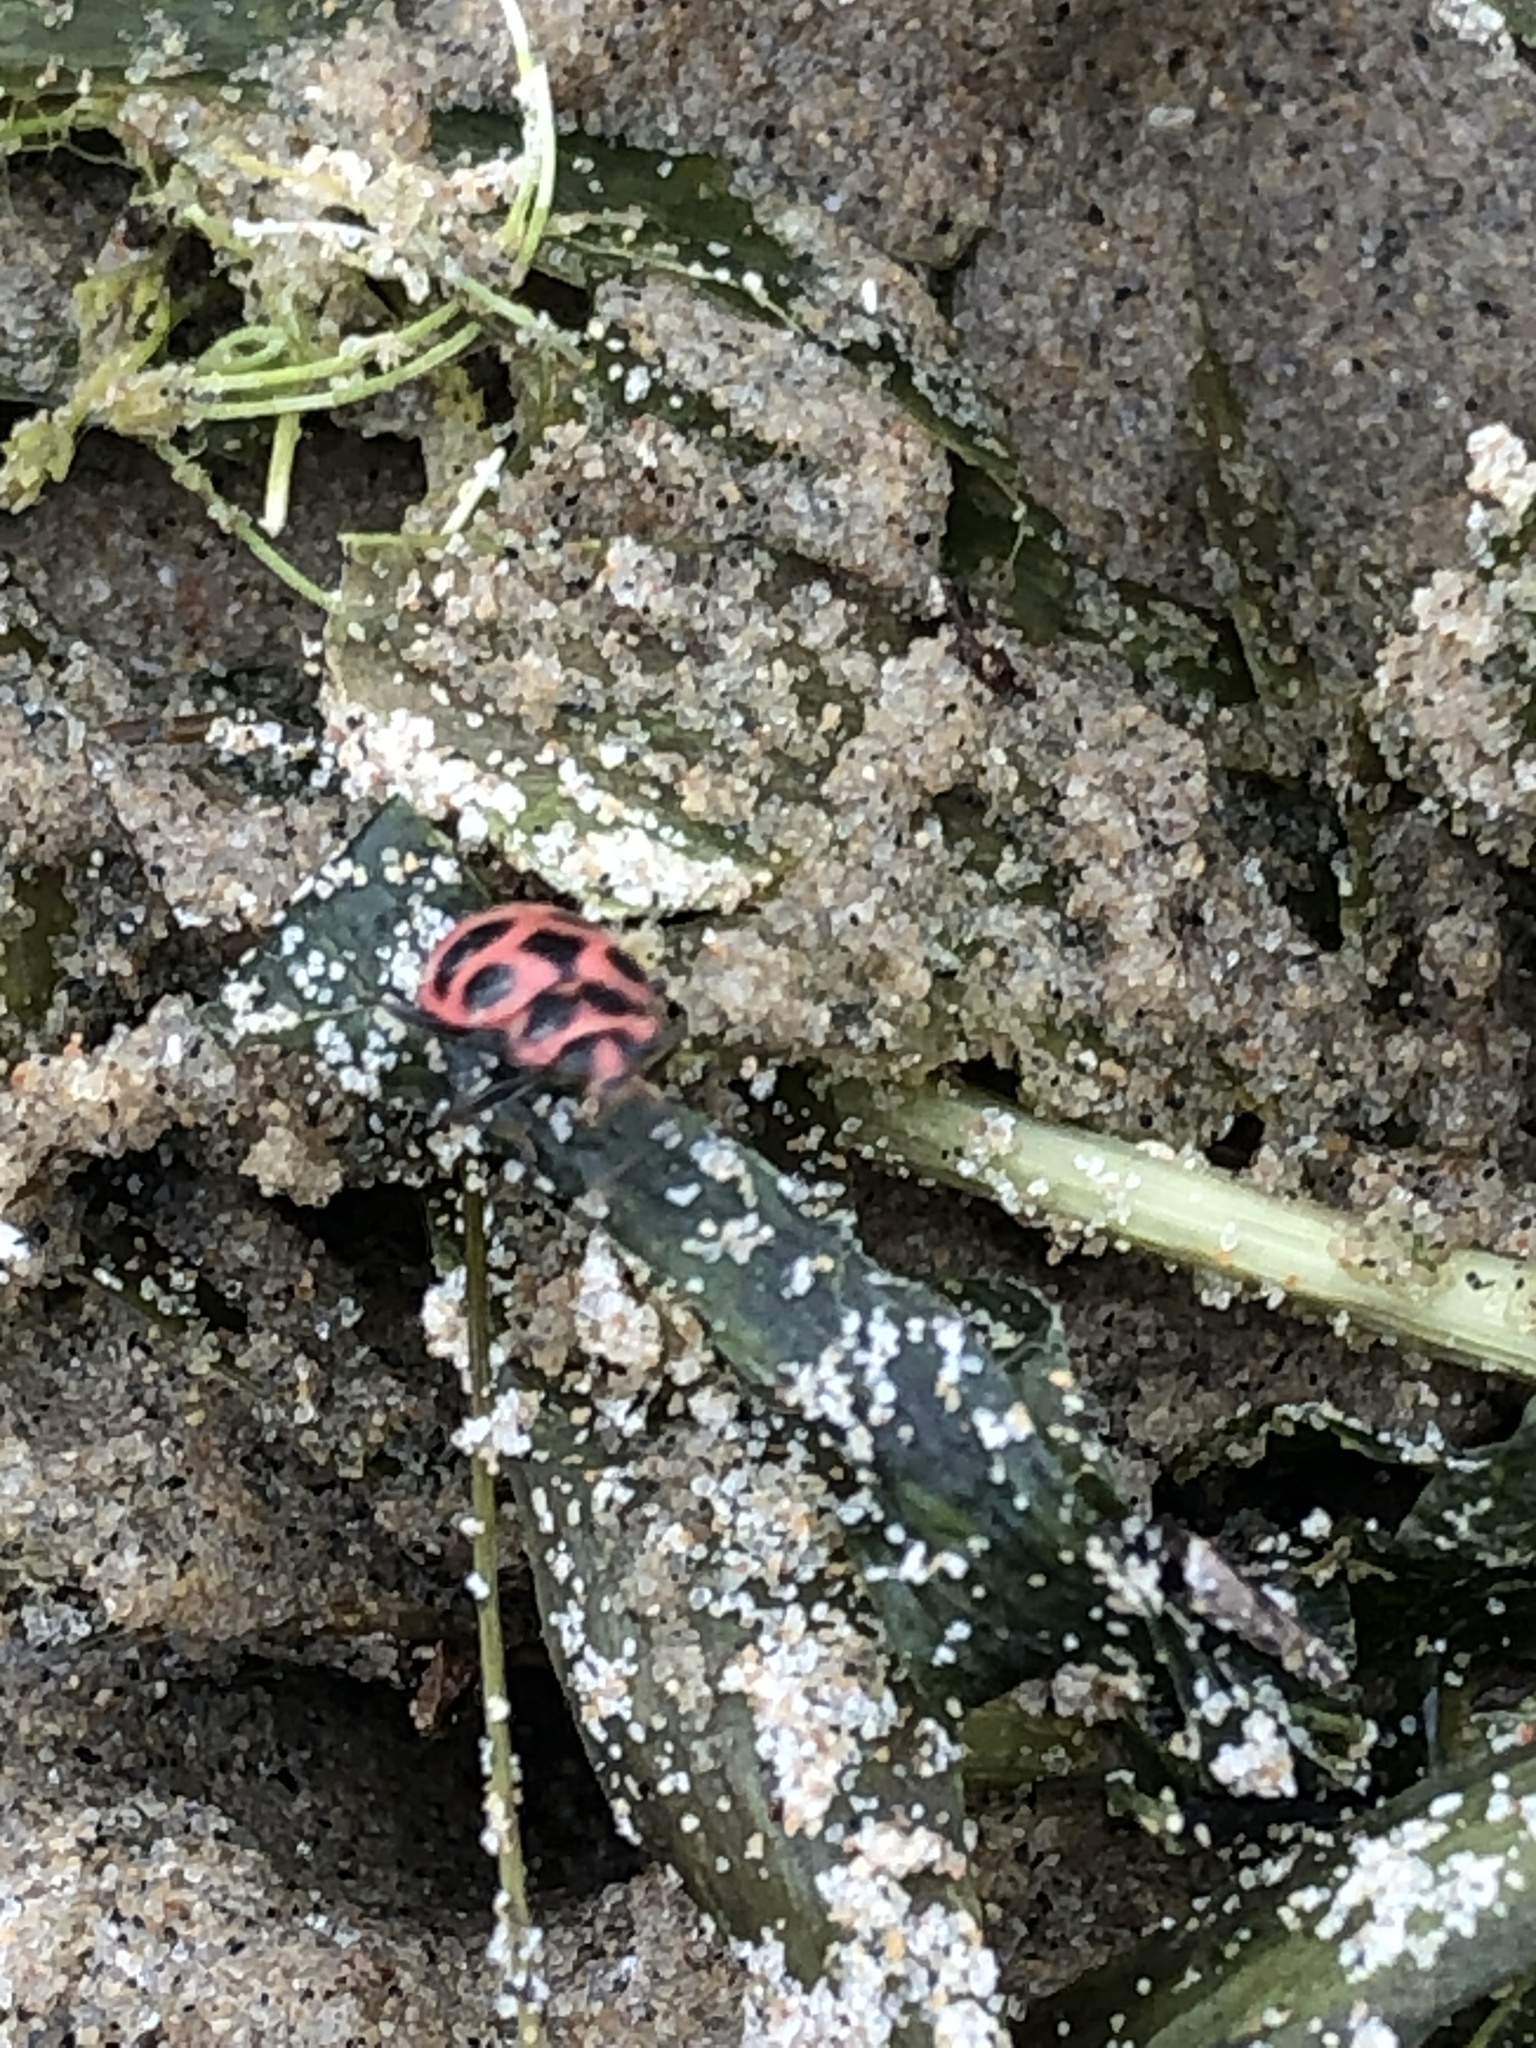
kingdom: Animalia
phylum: Arthropoda
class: Insecta
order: Coleoptera
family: Coccinellidae
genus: Coleomegilla
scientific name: Coleomegilla maculata
